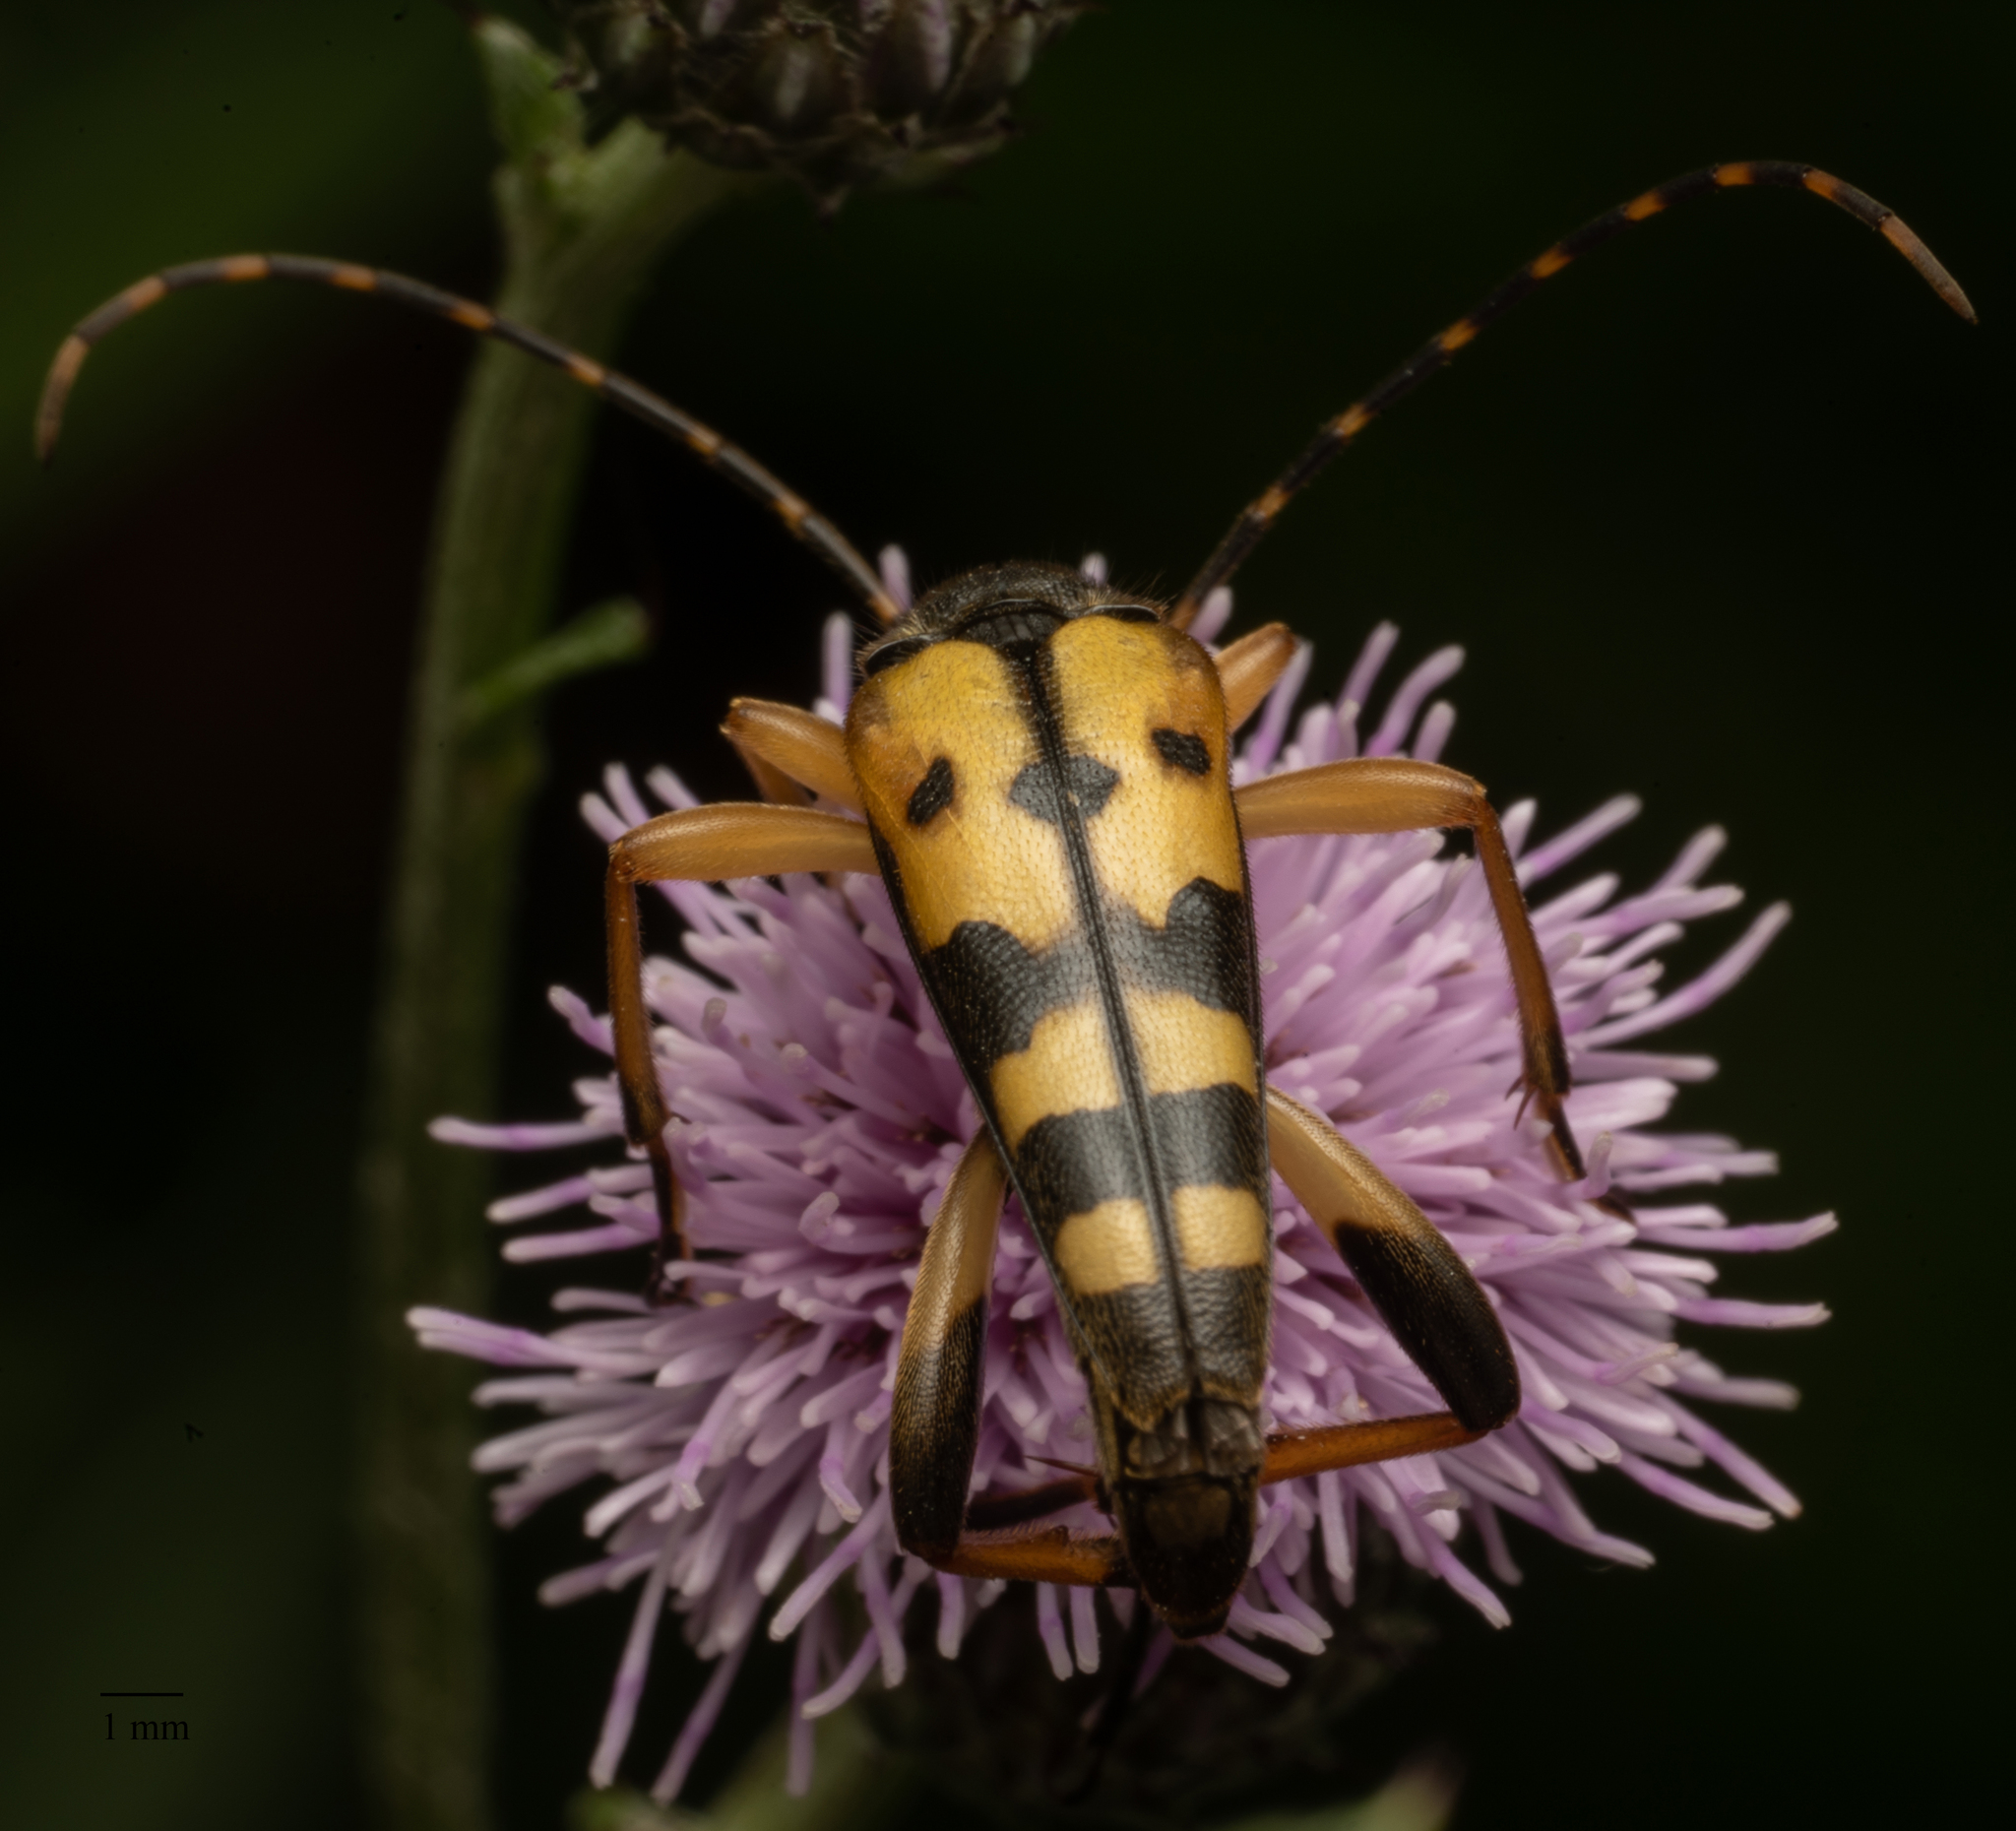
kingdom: Animalia
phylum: Arthropoda
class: Insecta
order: Coleoptera
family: Cerambycidae
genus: Rutpela
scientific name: Rutpela maculata
